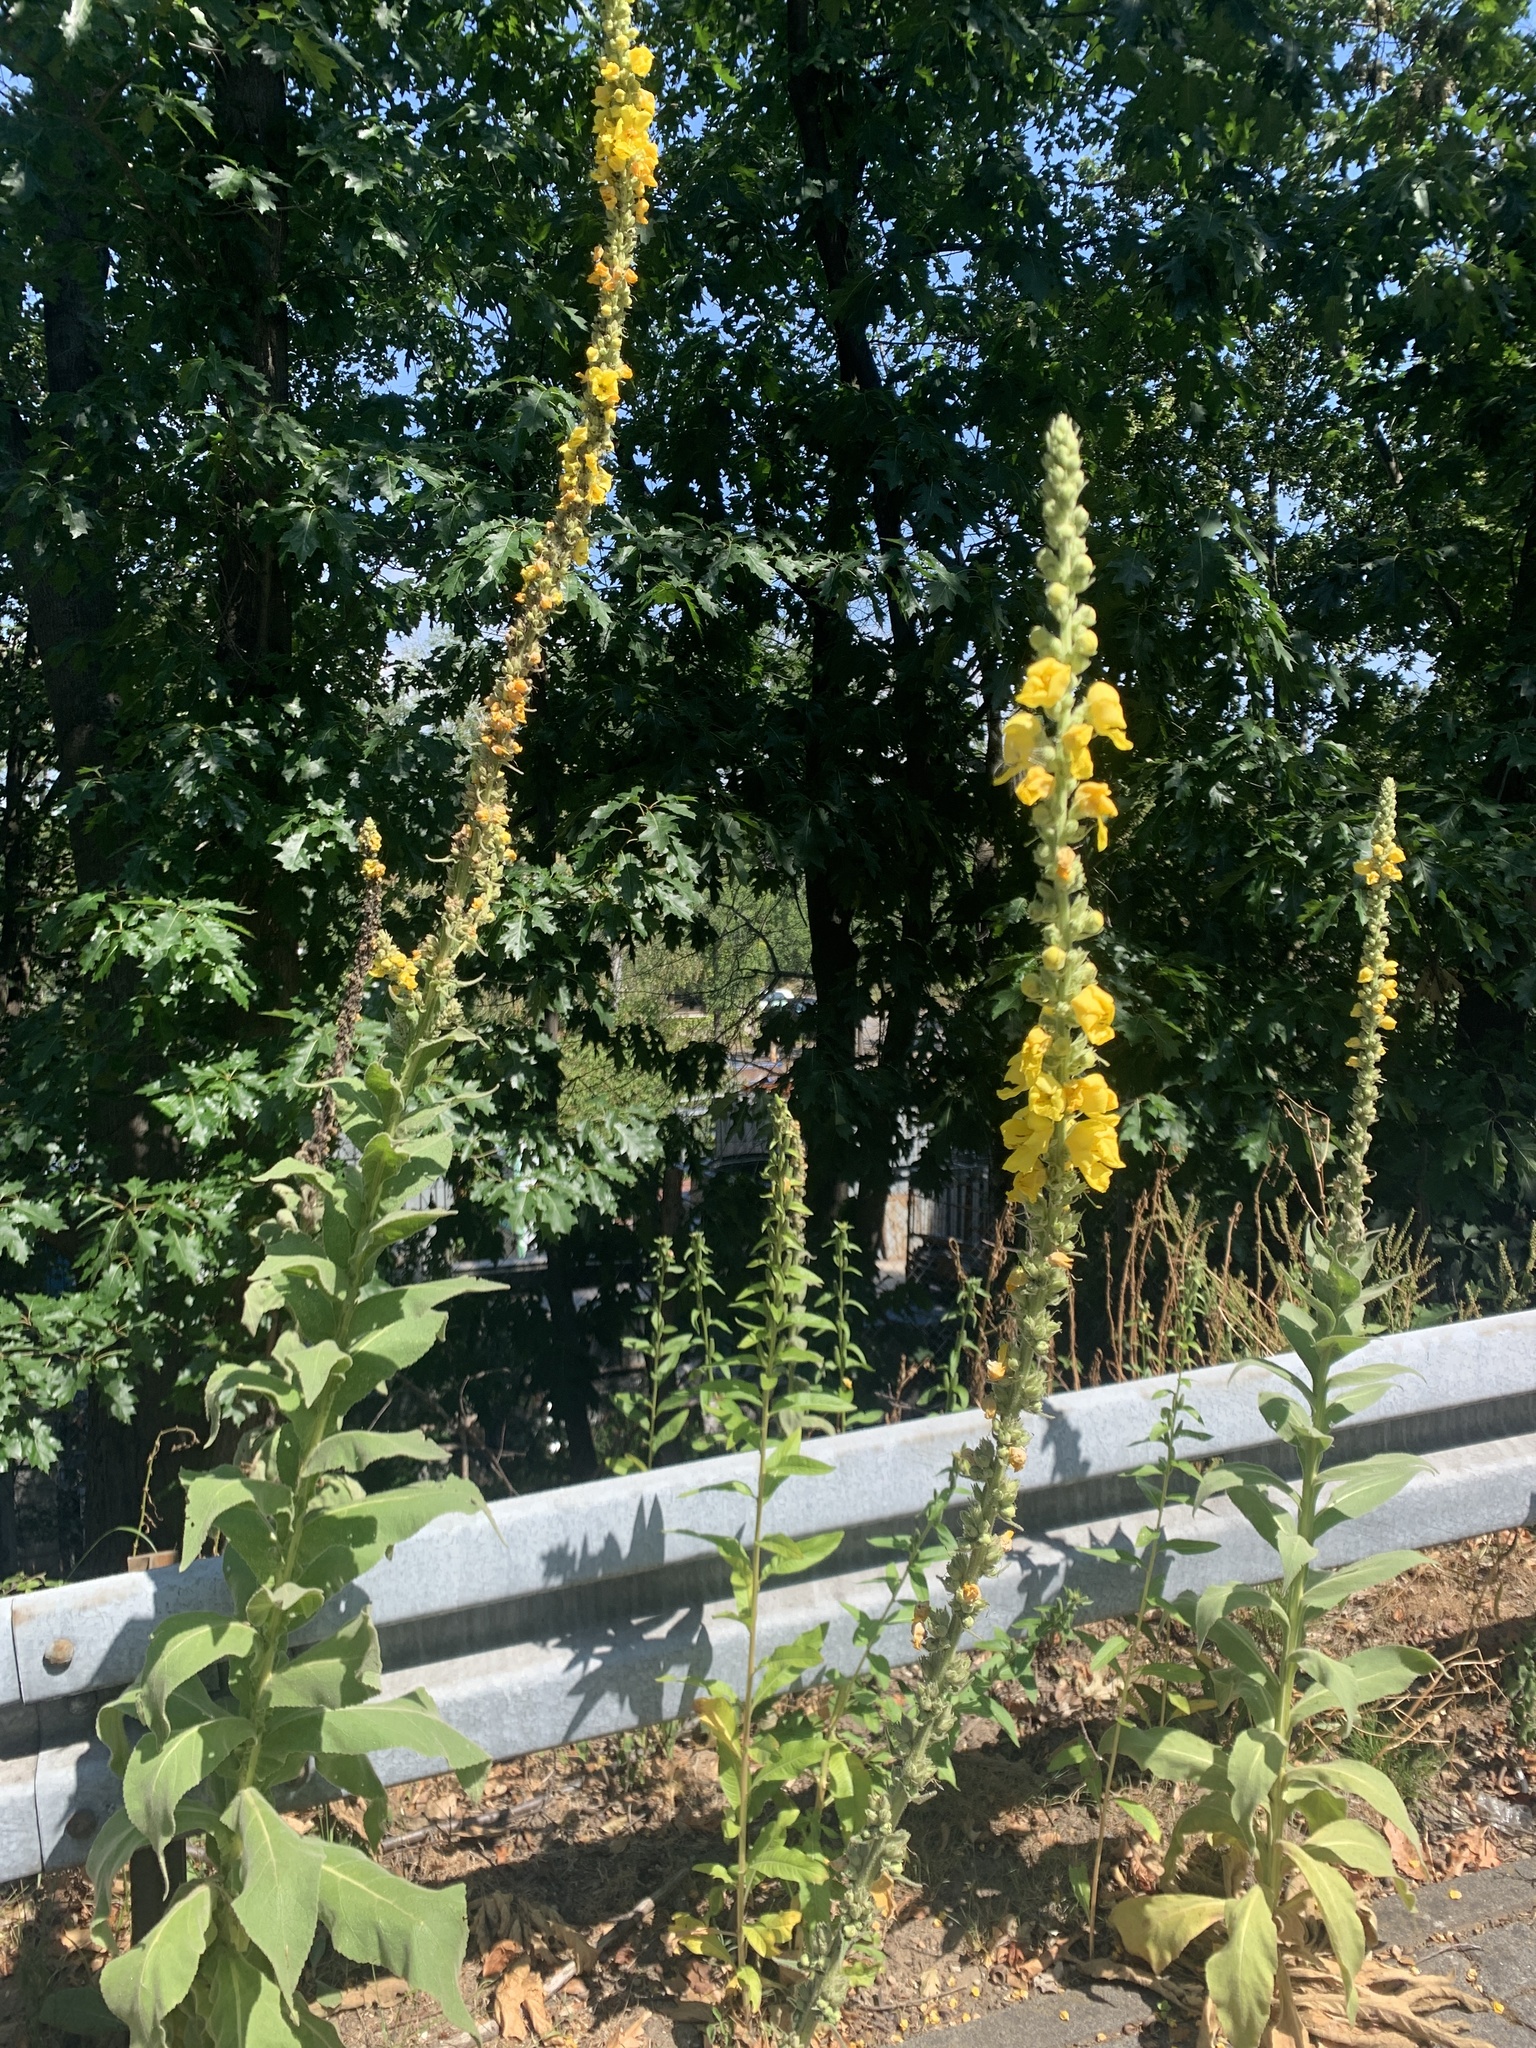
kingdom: Plantae
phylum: Tracheophyta
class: Magnoliopsida
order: Lamiales
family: Scrophulariaceae
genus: Verbascum
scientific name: Verbascum densiflorum
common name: Dense-flowered mullein
